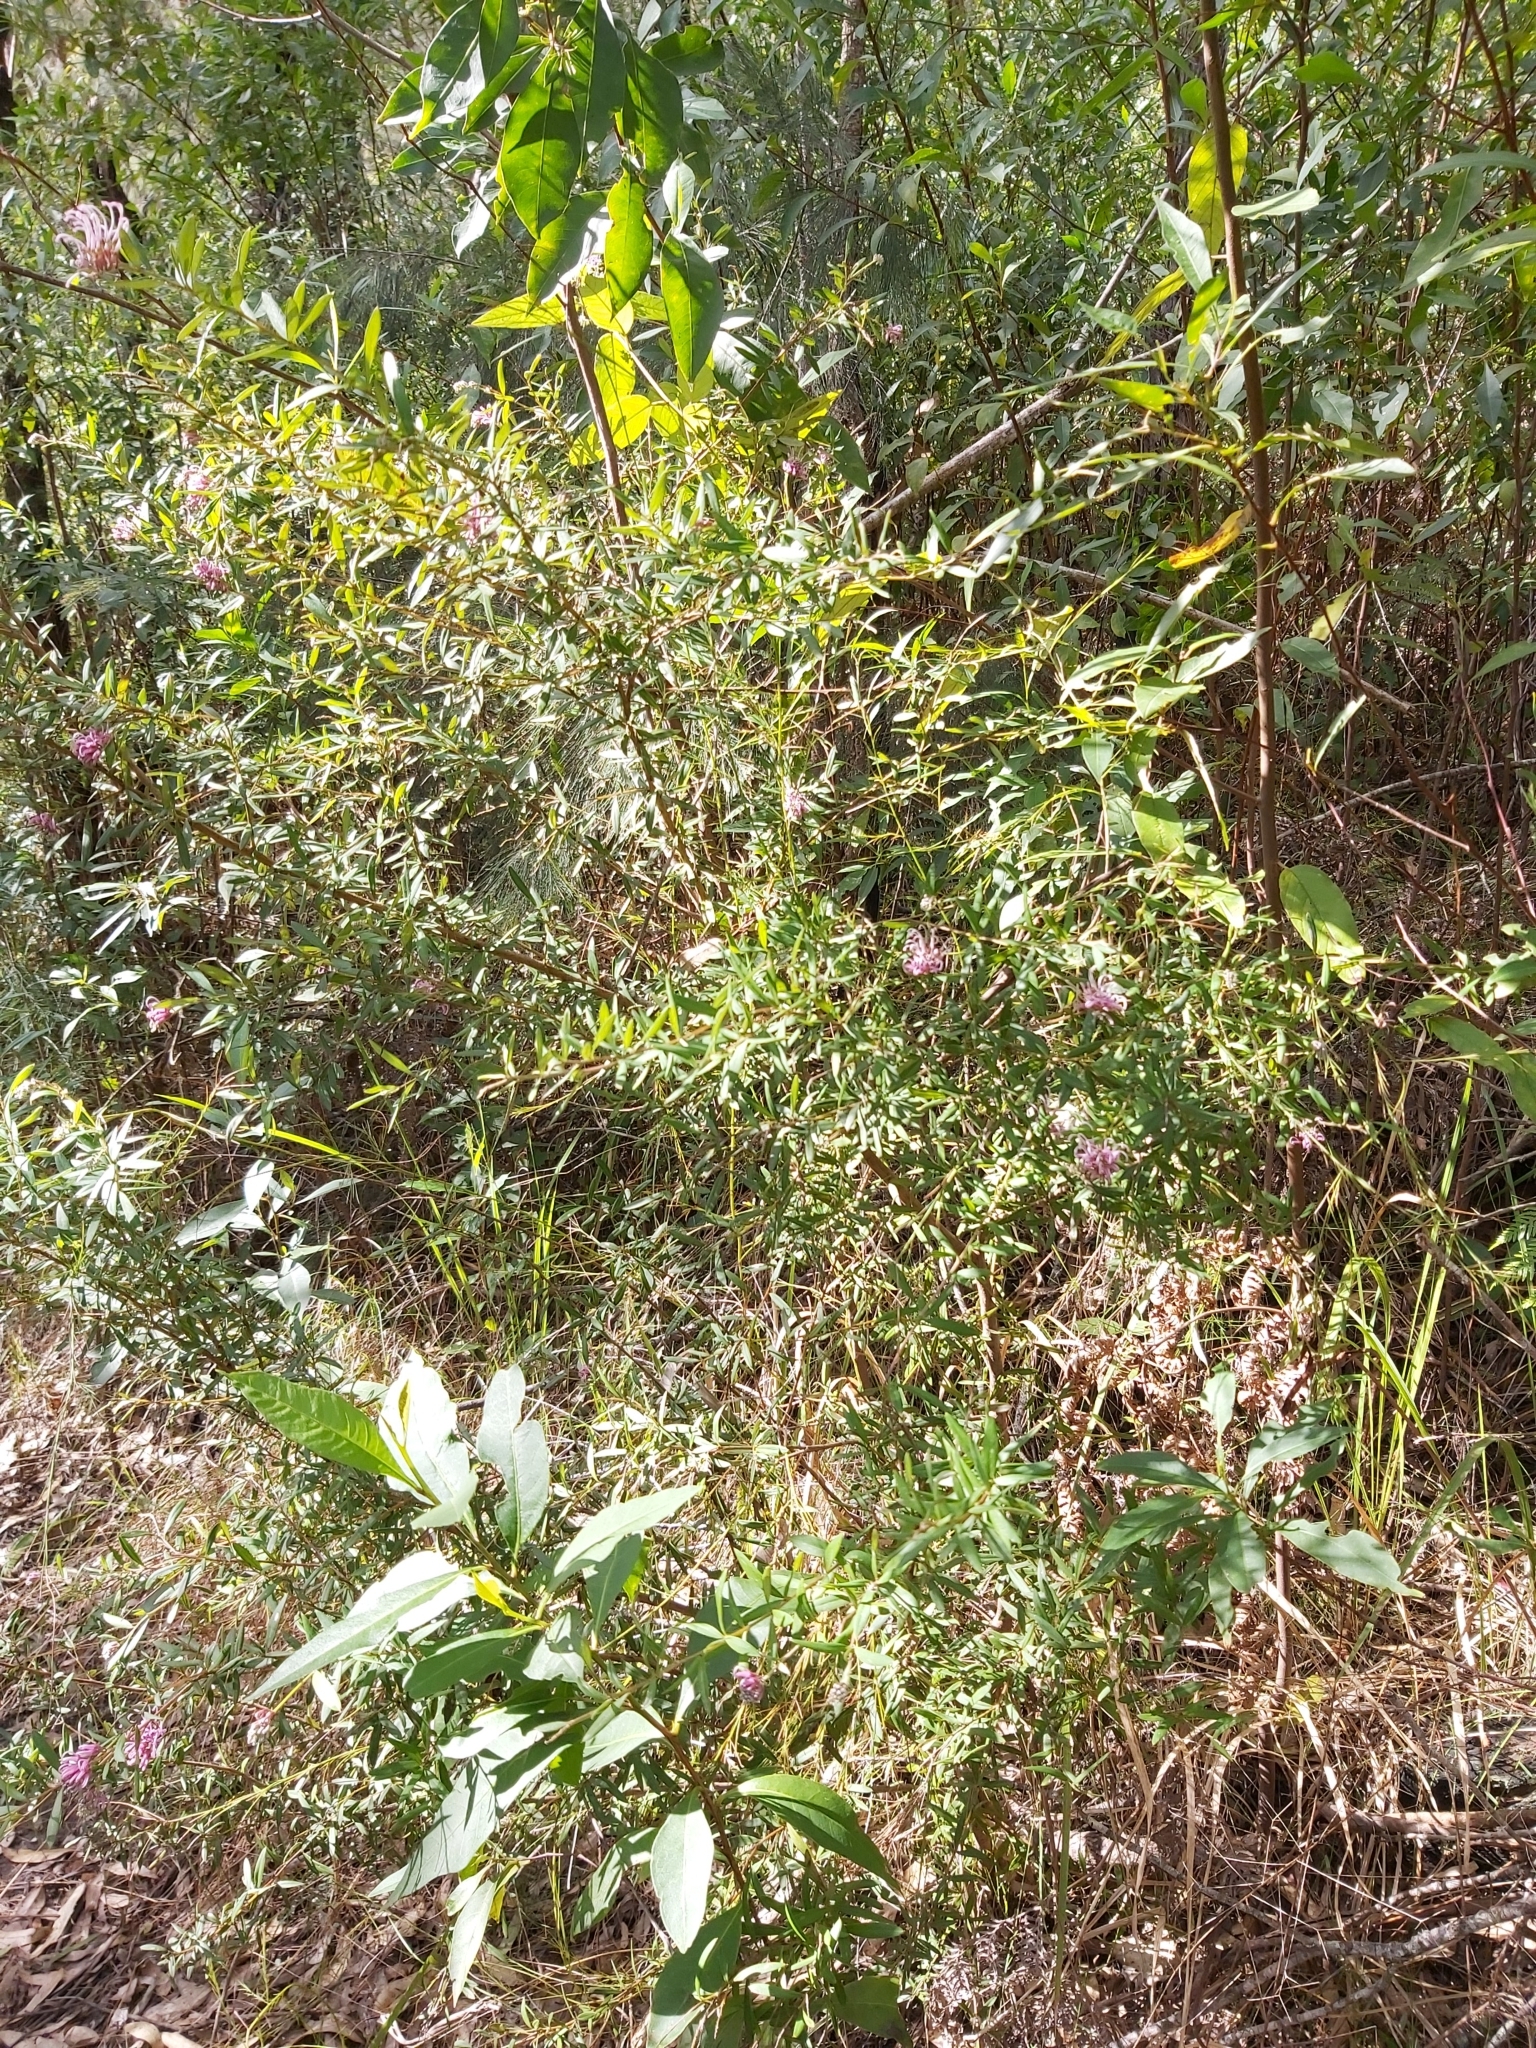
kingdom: Plantae
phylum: Tracheophyta
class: Magnoliopsida
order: Proteales
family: Proteaceae
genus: Grevillea
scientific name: Grevillea sericea
